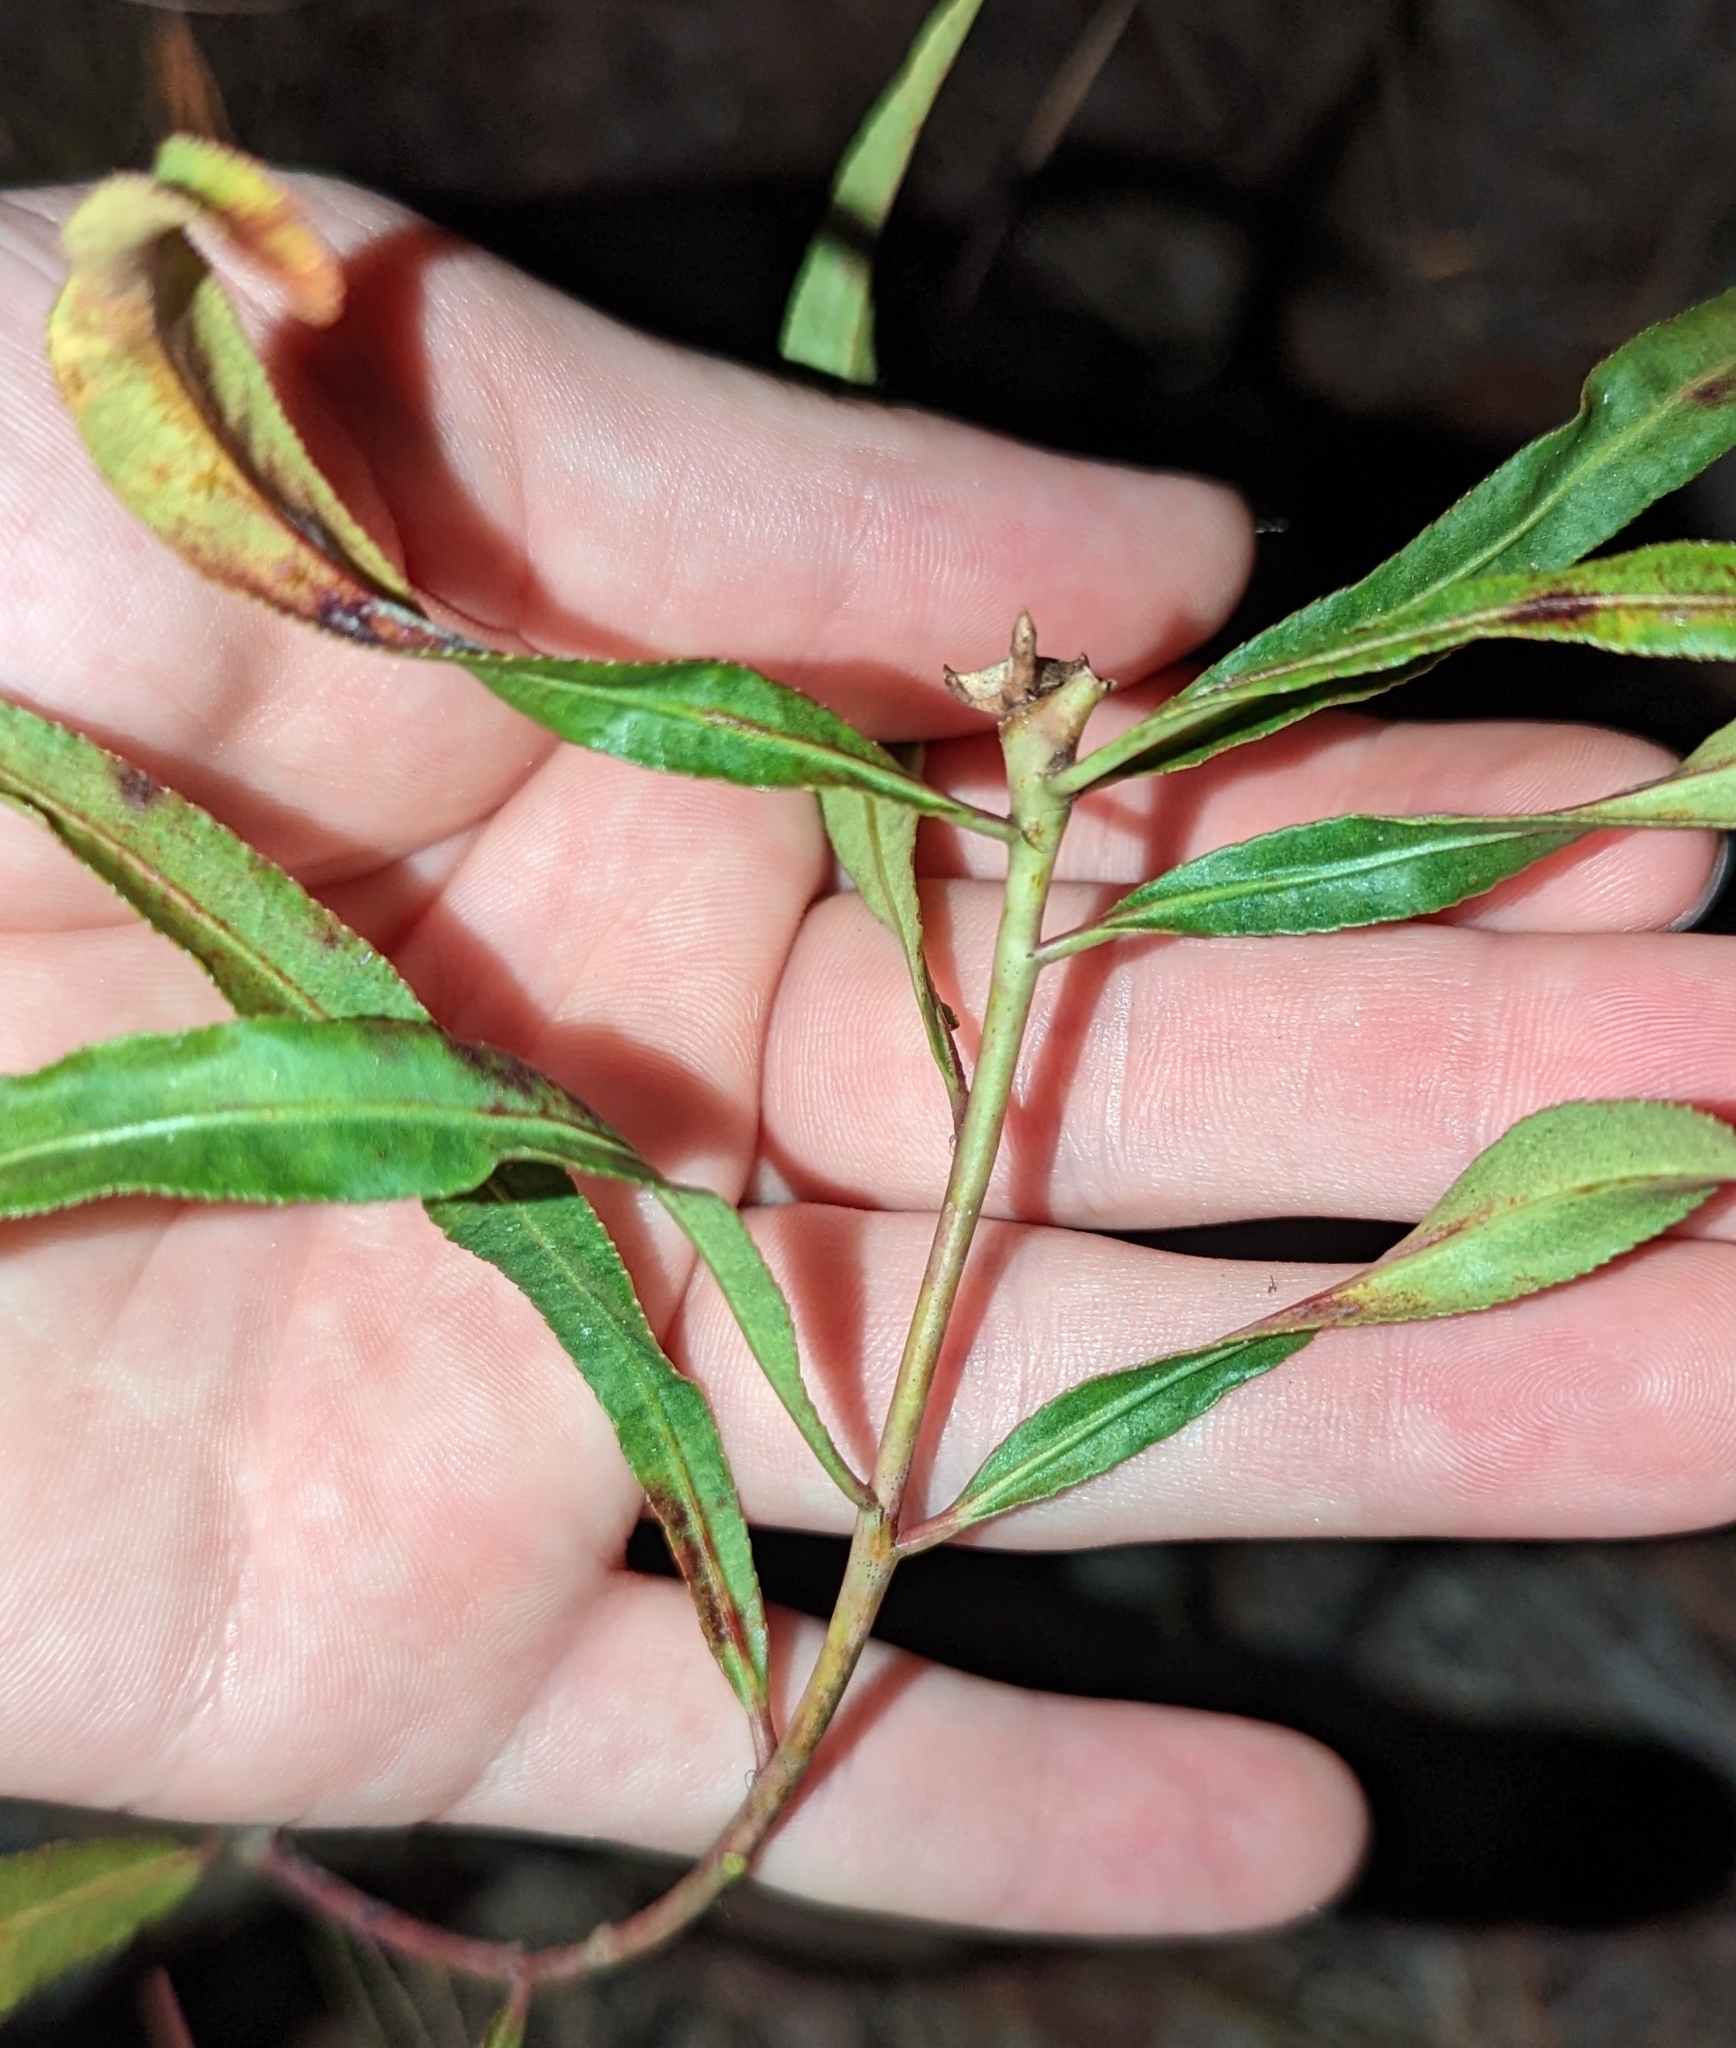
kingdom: Plantae
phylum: Tracheophyta
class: Magnoliopsida
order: Malpighiales
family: Euphorbiaceae
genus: Stillingia
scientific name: Stillingia sylvatica
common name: Queen's-delight
